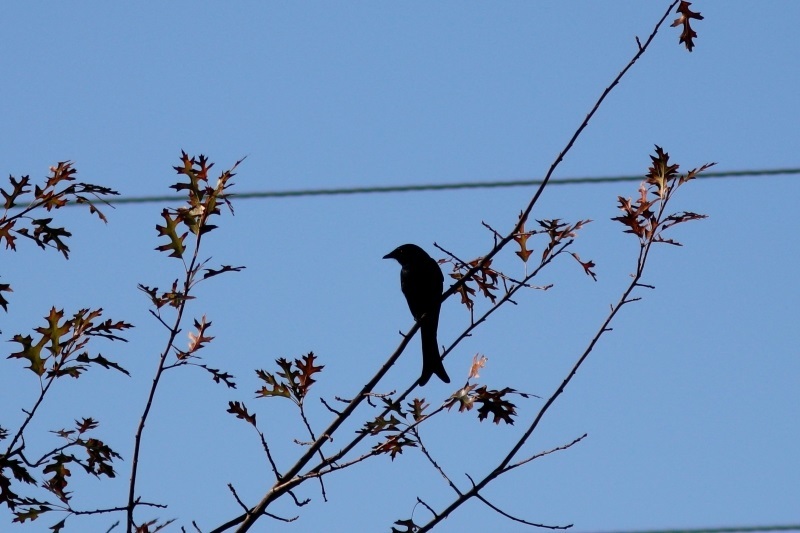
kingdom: Animalia
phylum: Chordata
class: Aves
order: Passeriformes
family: Dicruridae
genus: Dicrurus
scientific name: Dicrurus adsimilis
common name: Fork-tailed drongo
